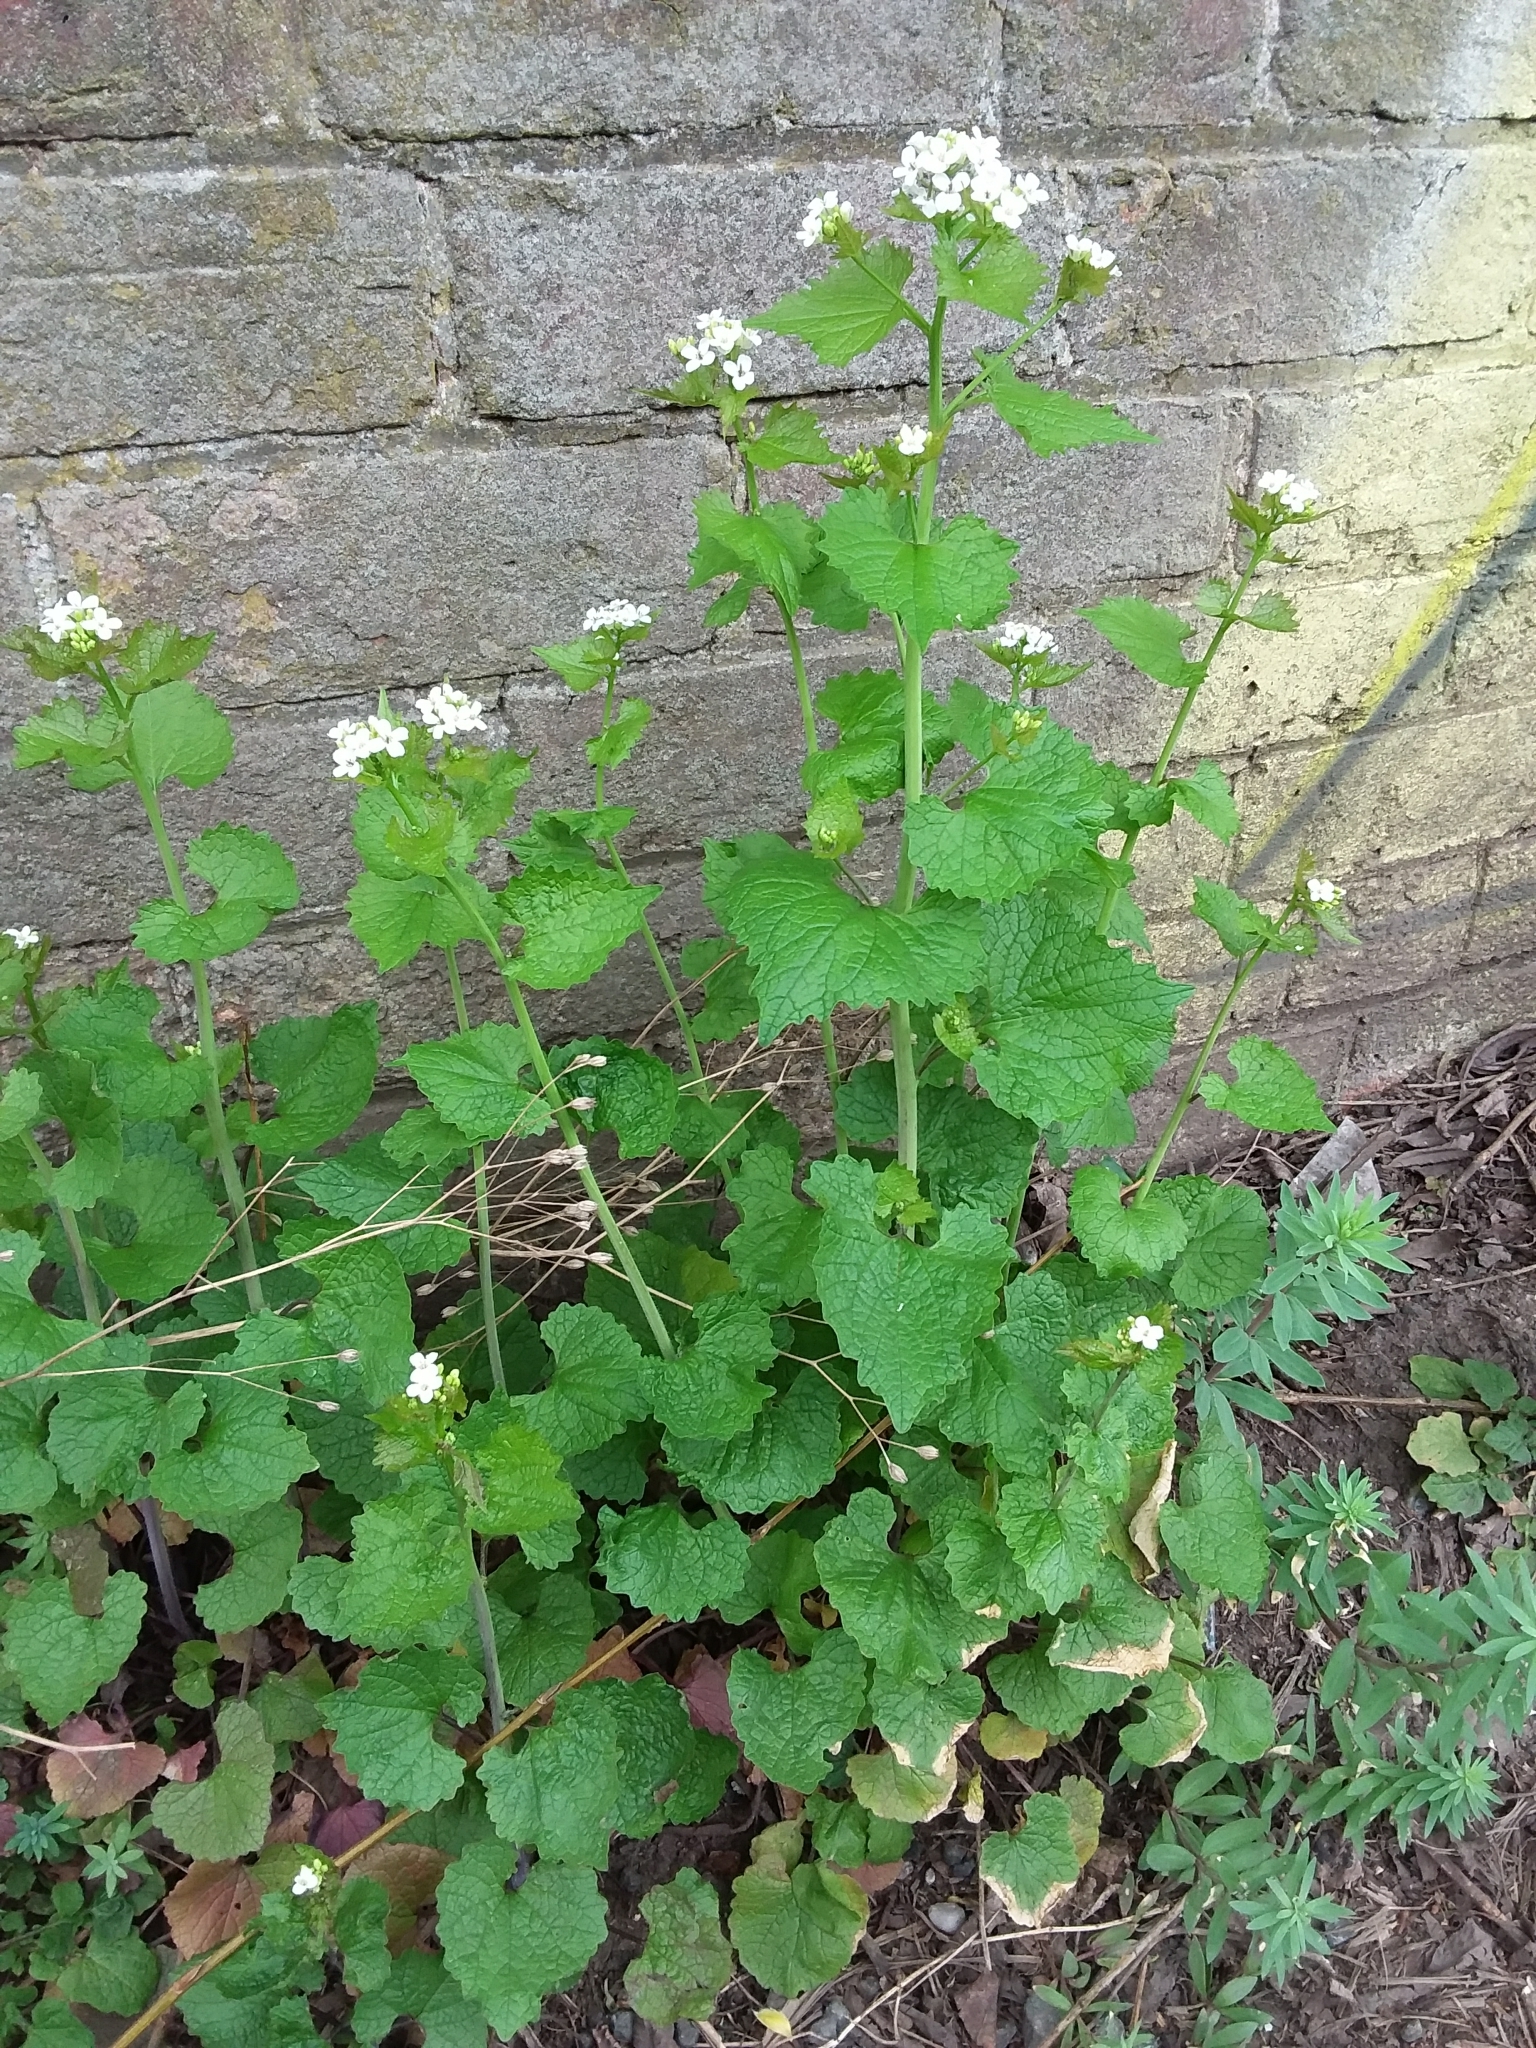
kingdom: Plantae
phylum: Tracheophyta
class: Magnoliopsida
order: Brassicales
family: Brassicaceae
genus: Alliaria
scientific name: Alliaria petiolata
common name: Garlic mustard
